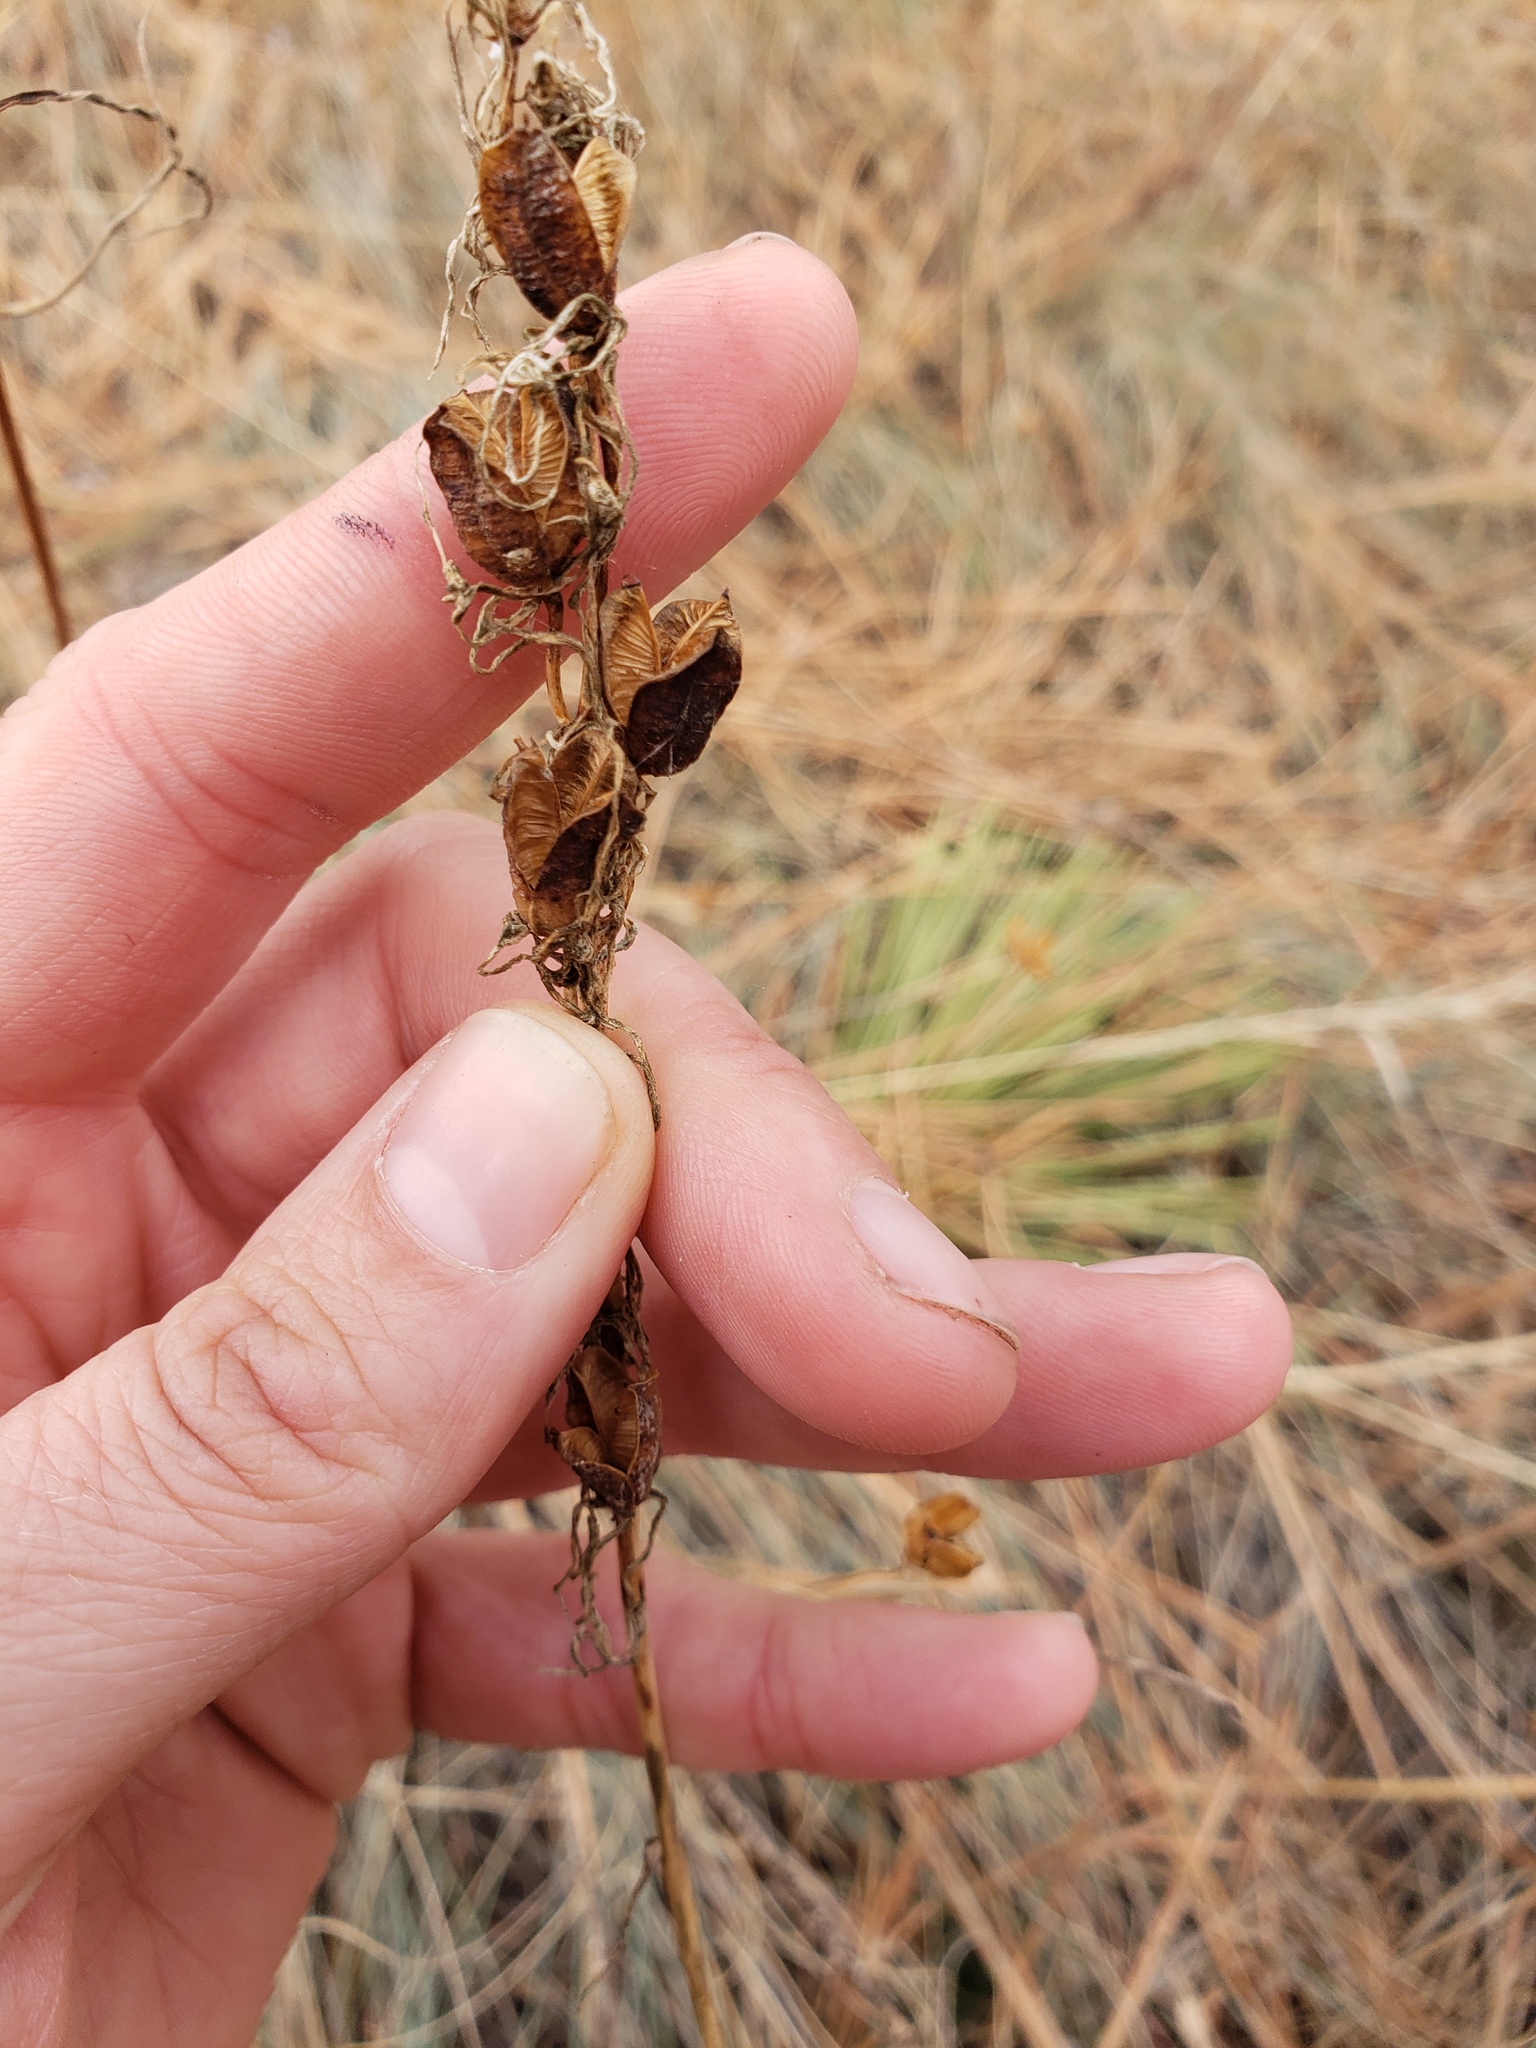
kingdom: Plantae
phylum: Tracheophyta
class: Liliopsida
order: Asparagales
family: Asparagaceae
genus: Camassia
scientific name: Camassia quamash
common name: Common camas
